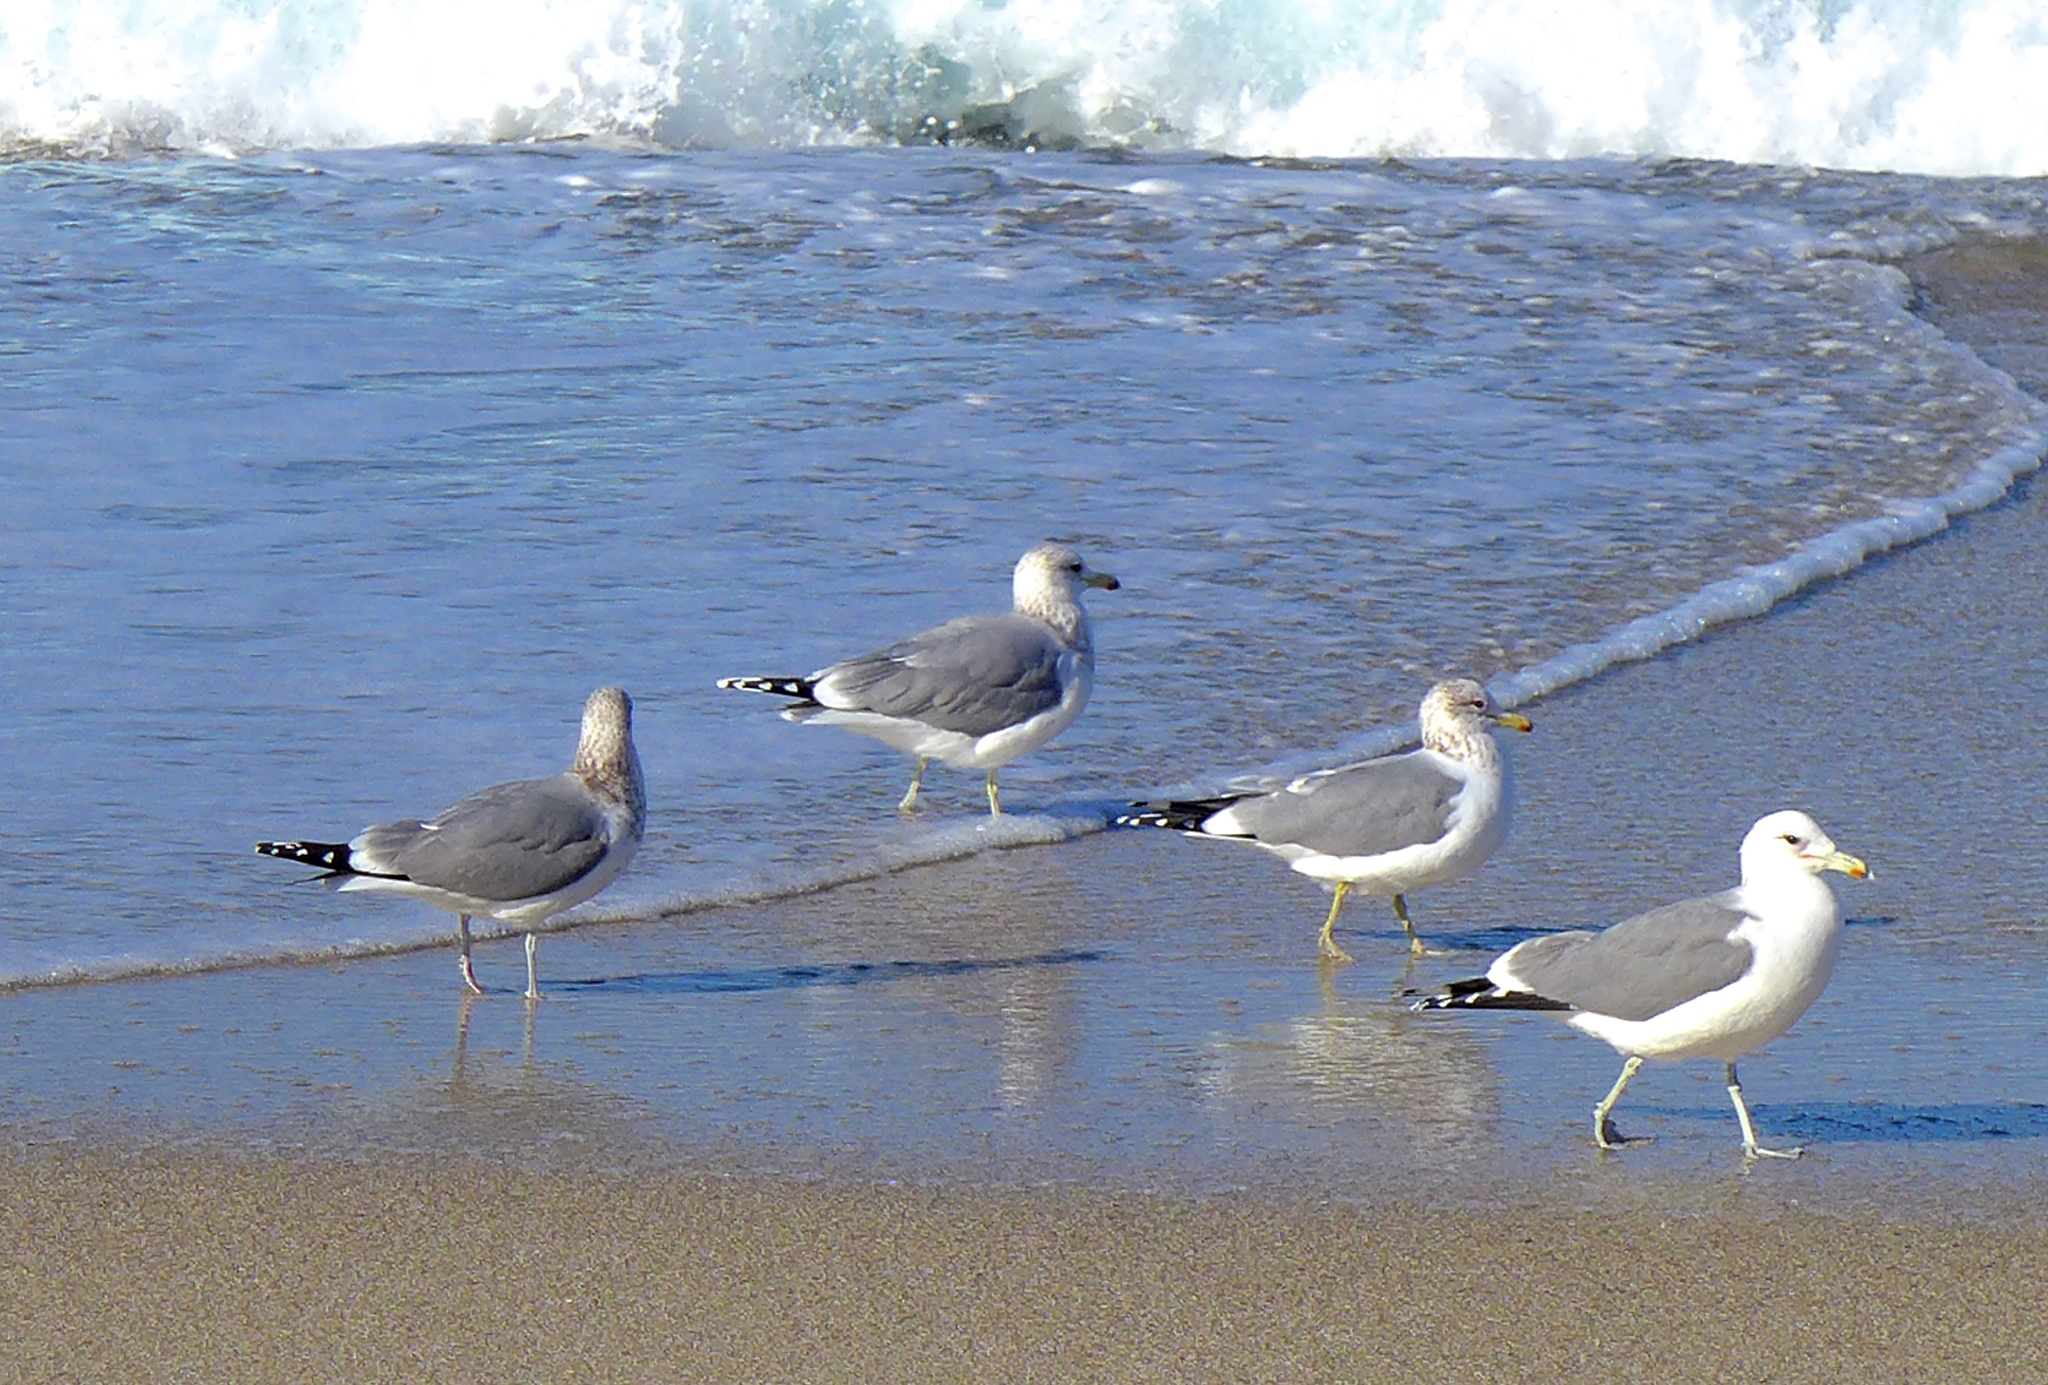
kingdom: Animalia
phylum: Chordata
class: Aves
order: Charadriiformes
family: Laridae
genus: Larus
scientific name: Larus californicus
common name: California gull
